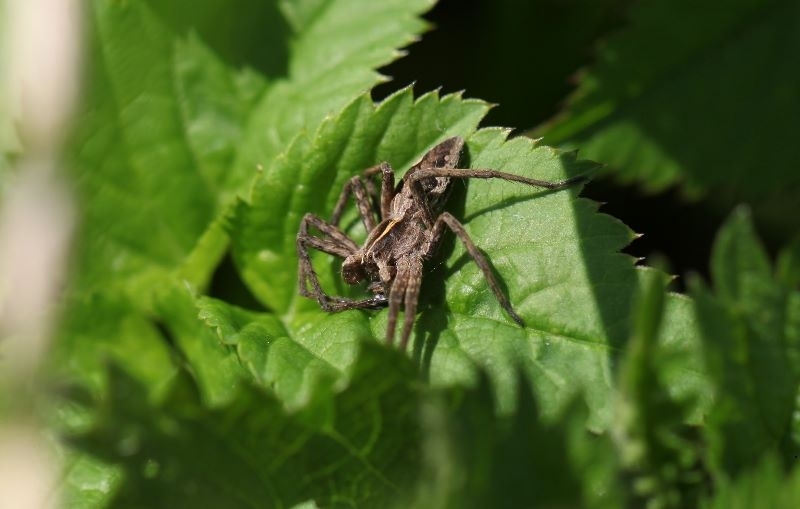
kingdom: Animalia
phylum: Arthropoda
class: Arachnida
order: Araneae
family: Pisauridae
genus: Pisaura
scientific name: Pisaura mirabilis
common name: Tent spider
